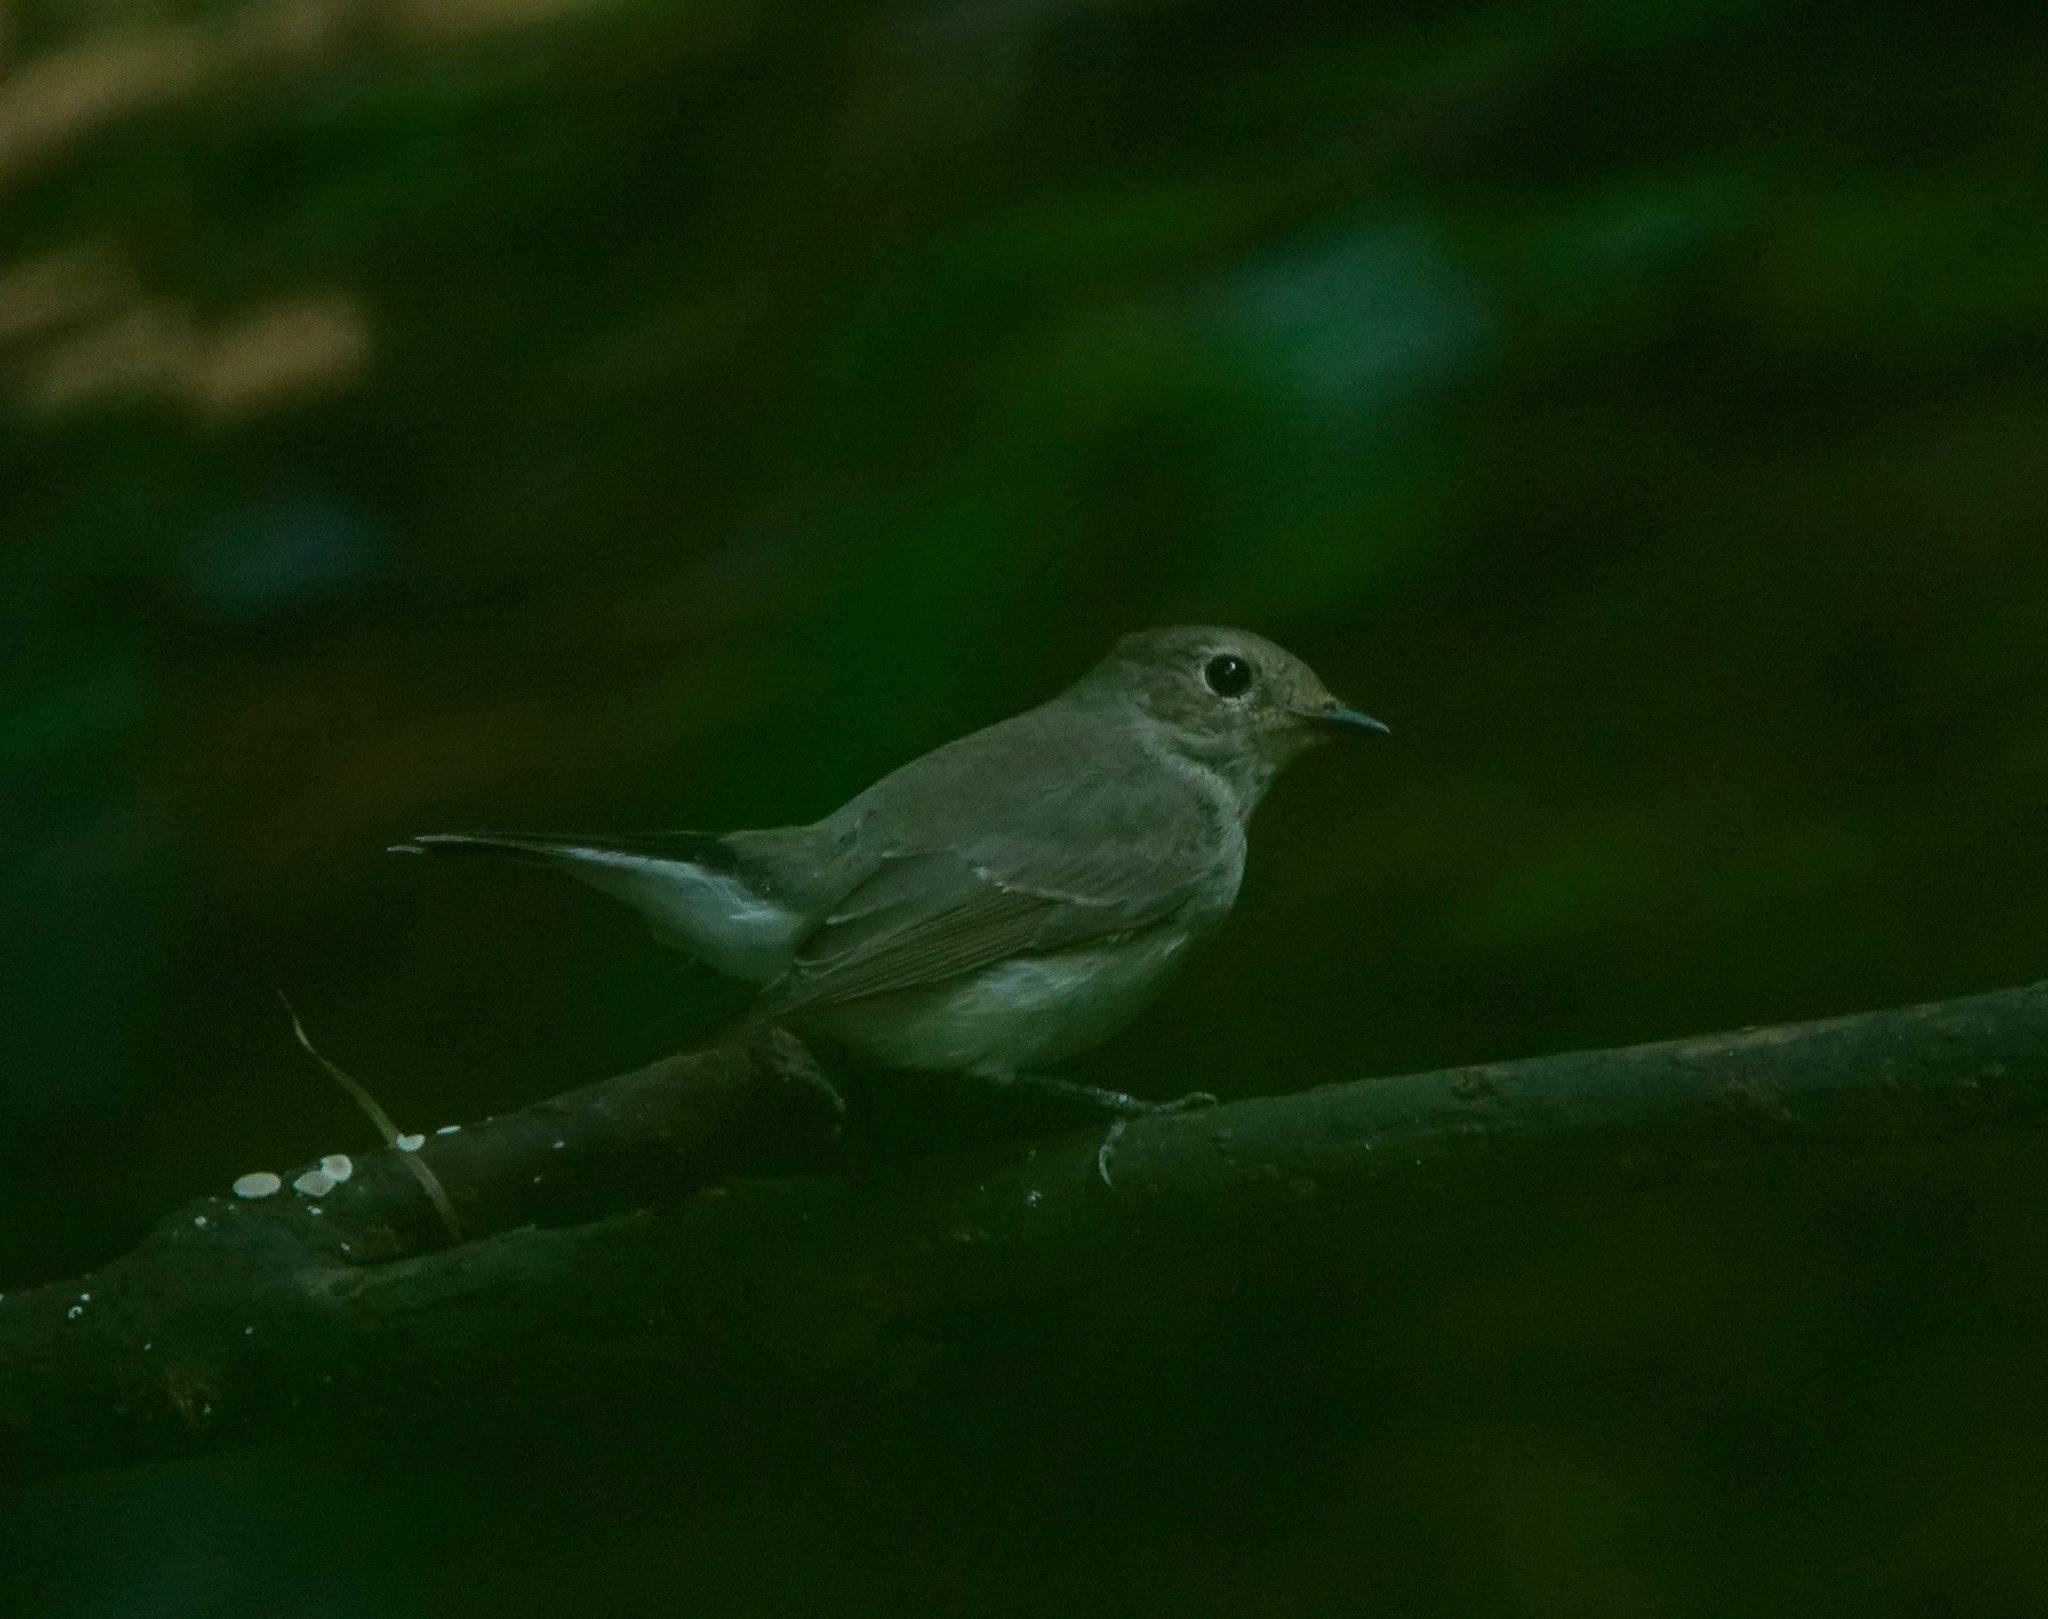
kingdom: Animalia
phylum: Chordata
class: Aves
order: Passeriformes
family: Muscicapidae
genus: Ficedula
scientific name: Ficedula albicilla
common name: Taiga flycatcher
